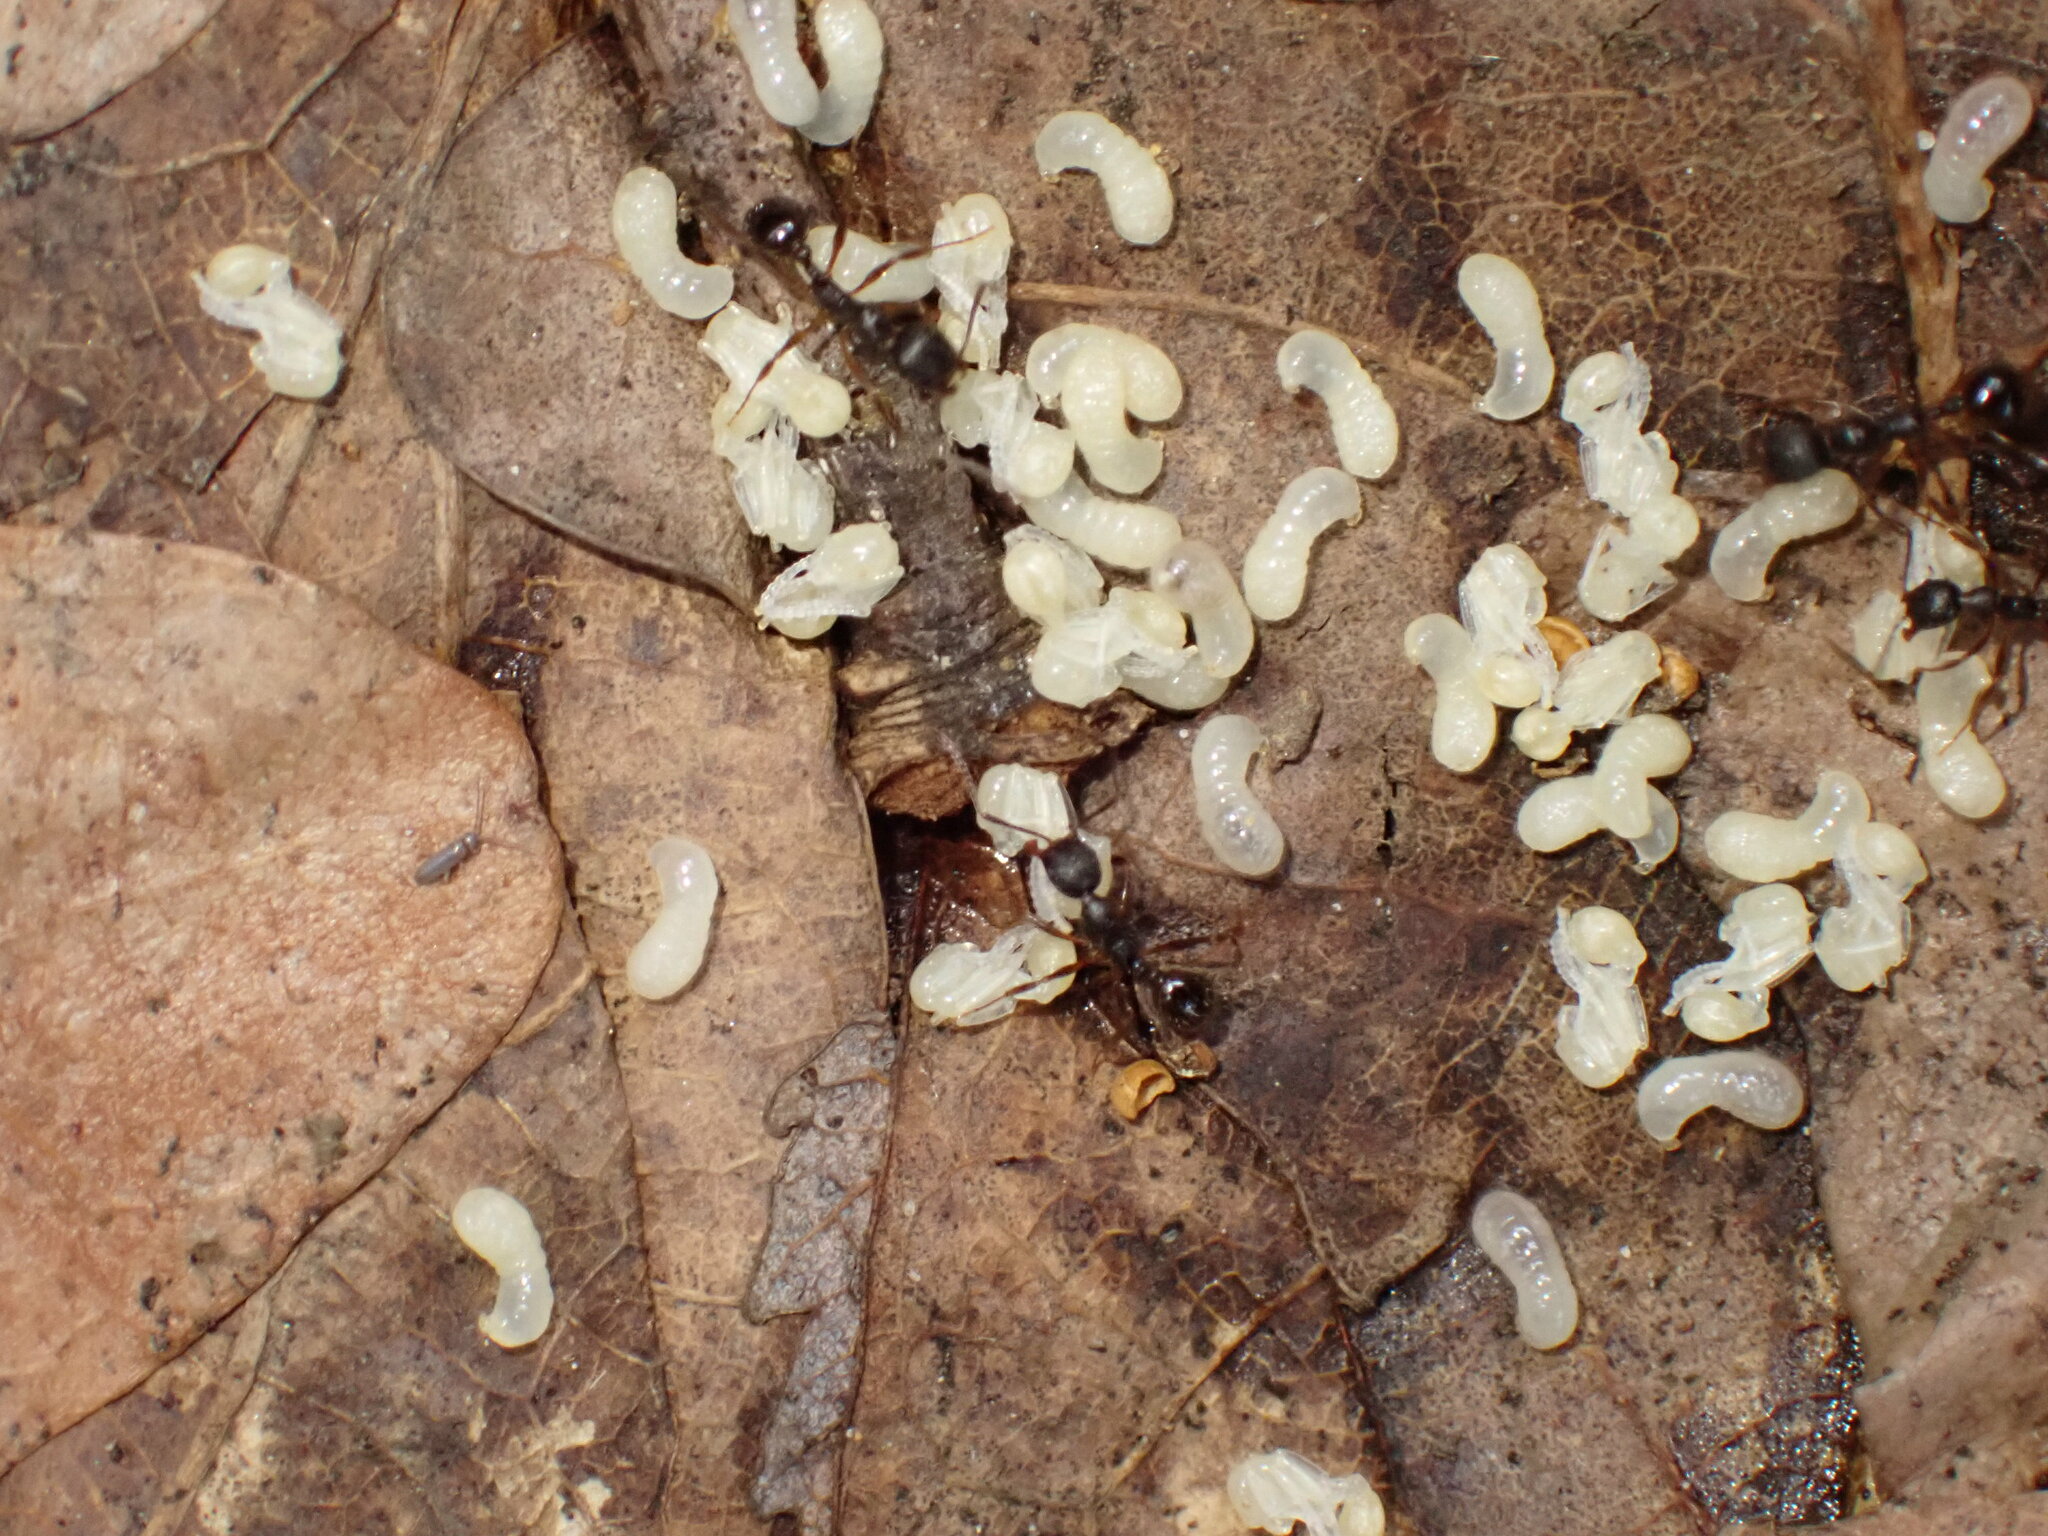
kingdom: Animalia
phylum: Arthropoda
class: Insecta
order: Hymenoptera
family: Formicidae
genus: Aphaenogaster
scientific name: Aphaenogaster rudis
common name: Winnow ant
